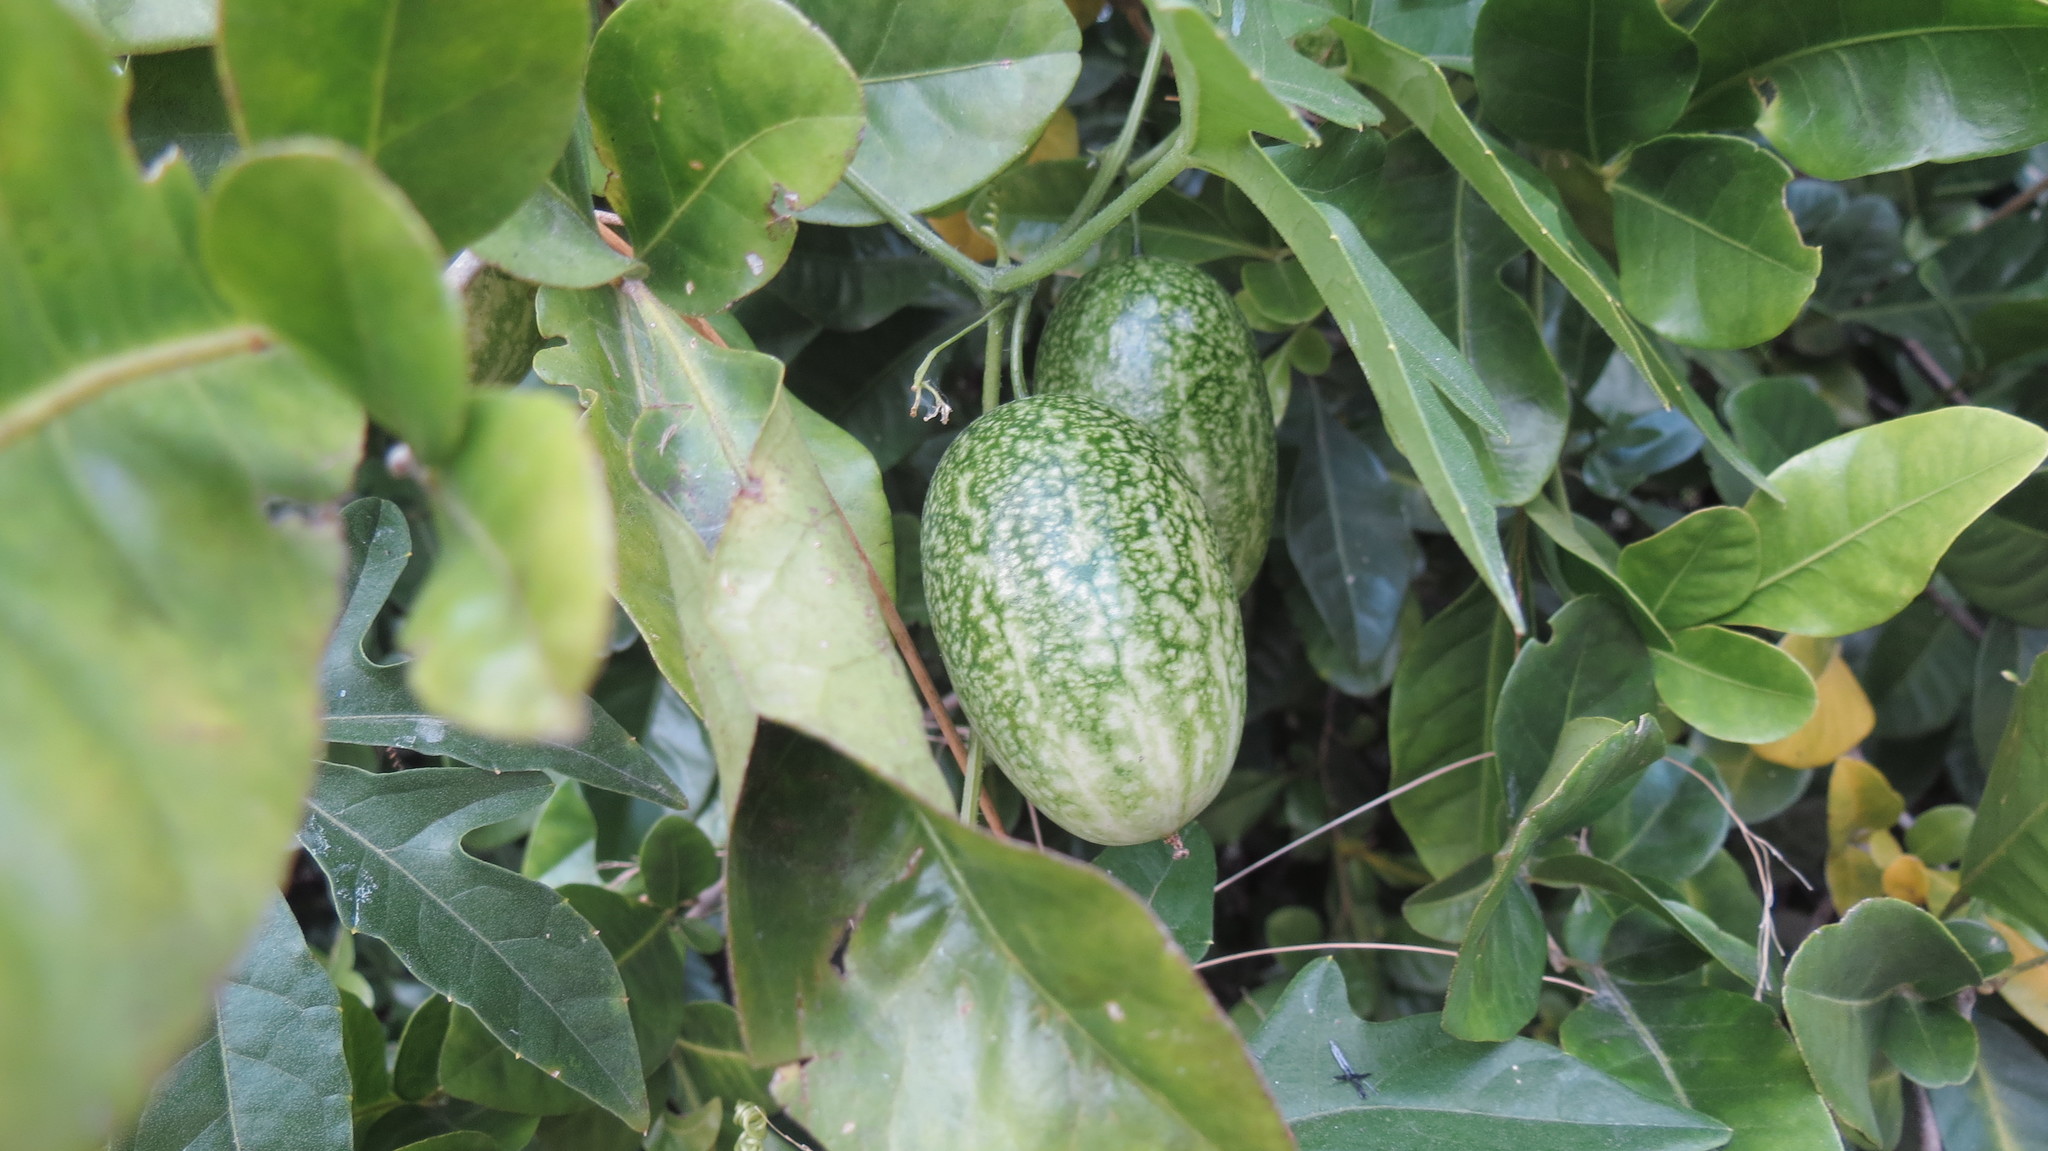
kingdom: Plantae
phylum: Tracheophyta
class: Magnoliopsida
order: Cucurbitales
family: Cucurbitaceae
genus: Melothria
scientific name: Melothria trilobata
